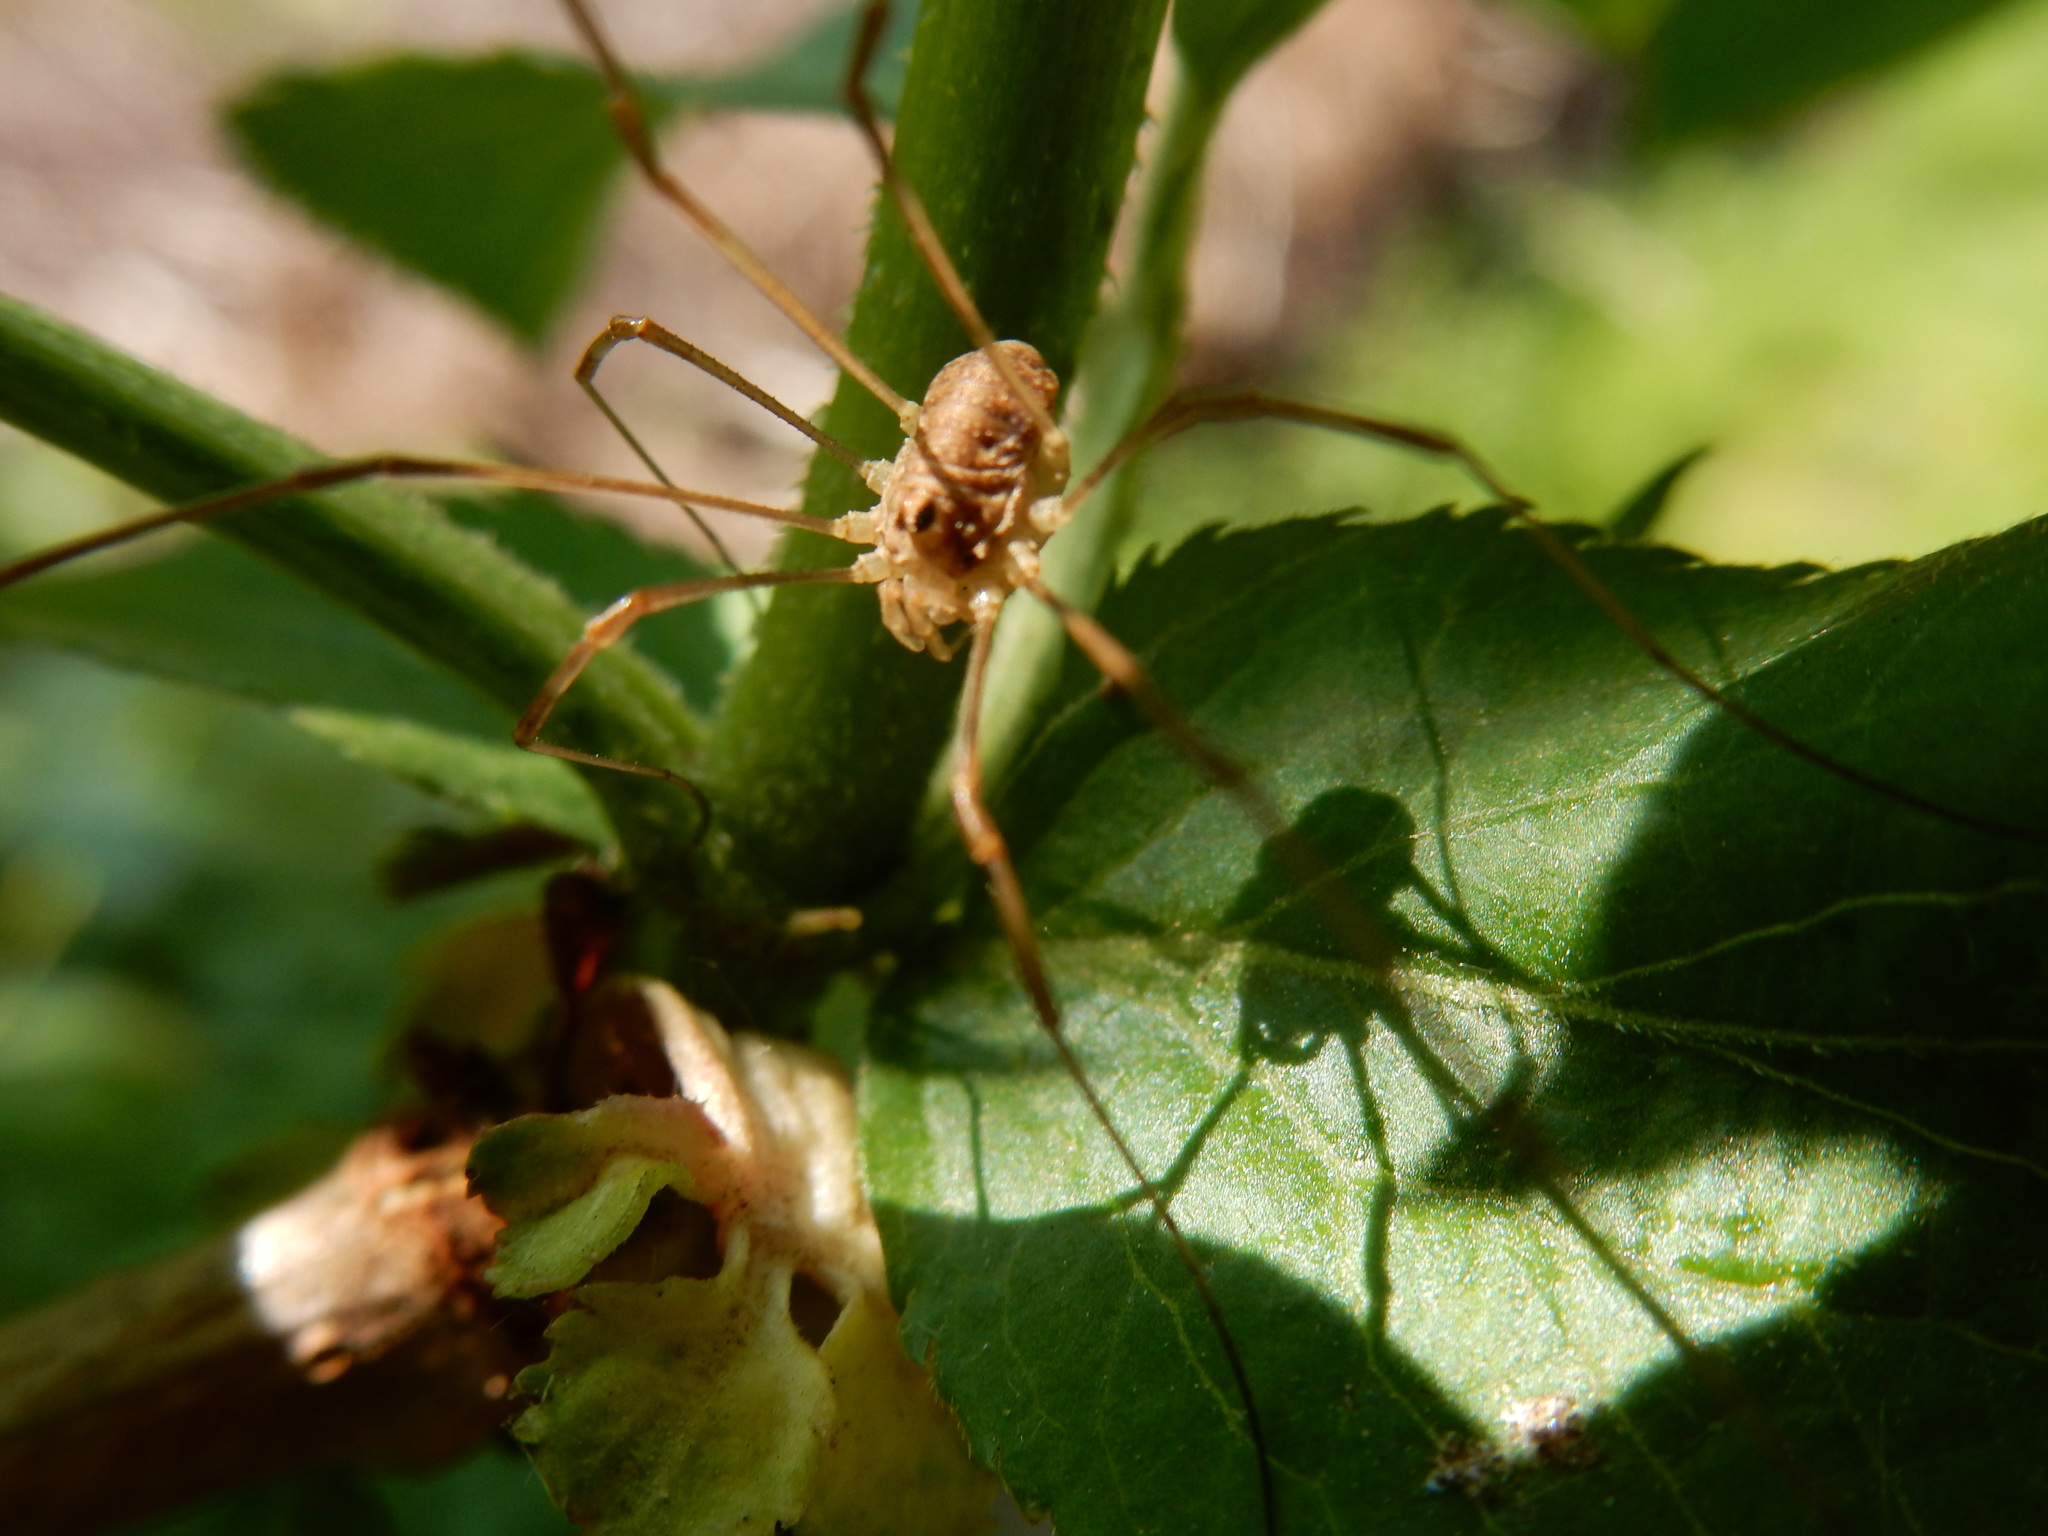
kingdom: Animalia
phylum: Arthropoda
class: Arachnida
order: Opiliones
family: Phalangiidae
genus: Rilaena
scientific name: Rilaena triangularis
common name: Spring harvestman
